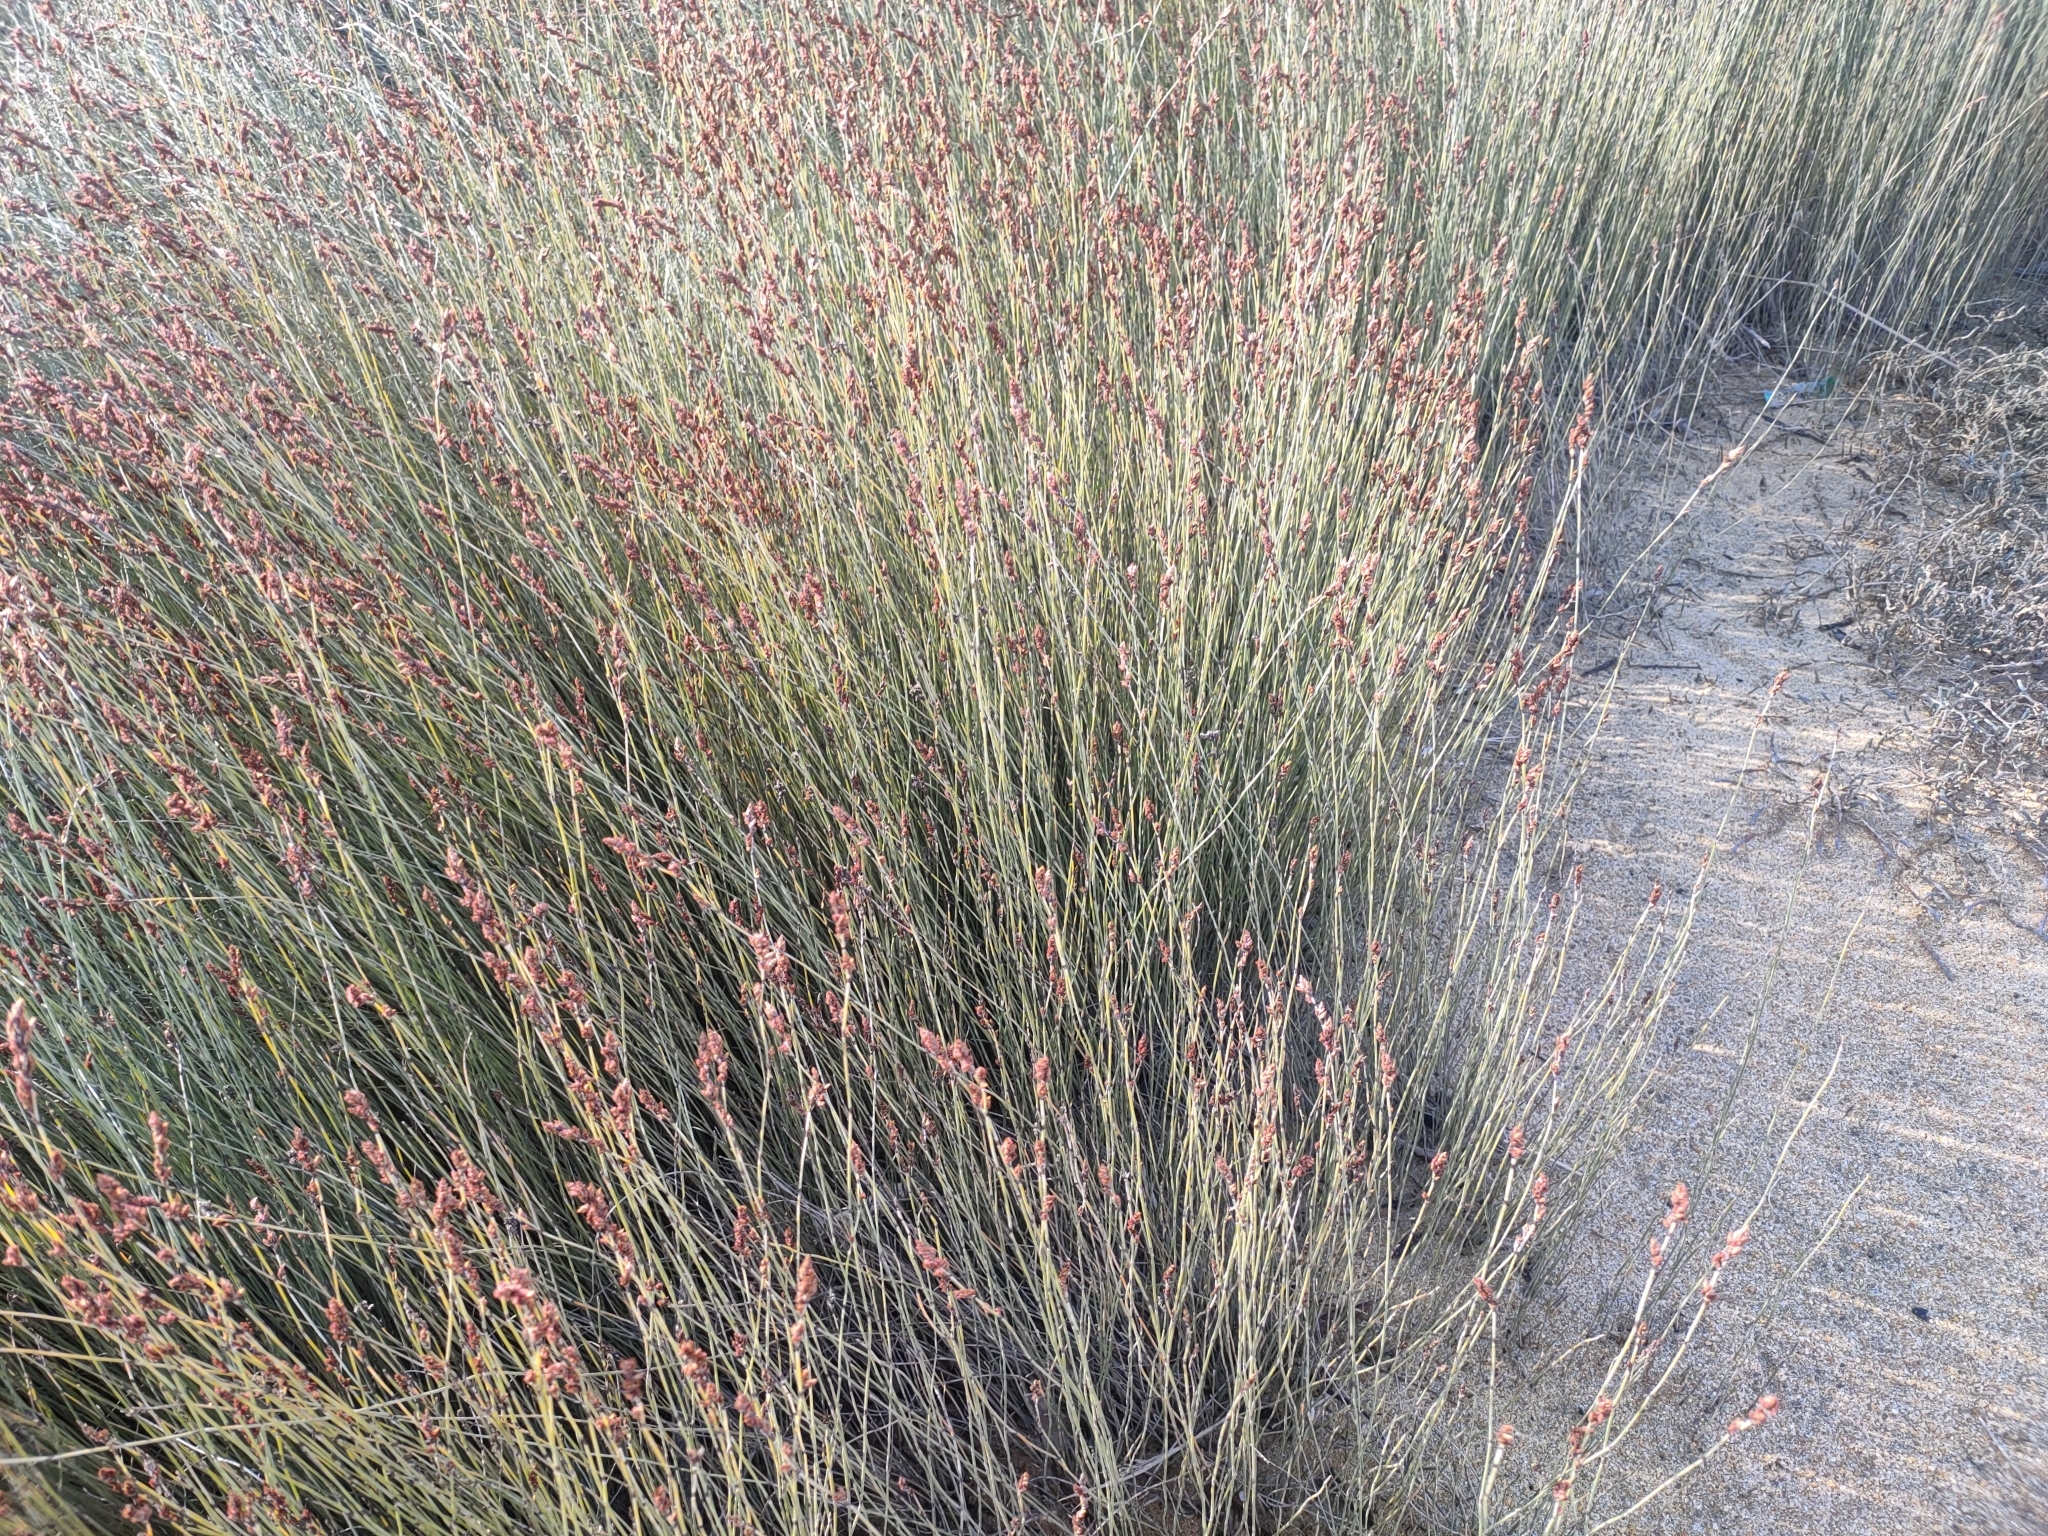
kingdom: Plantae
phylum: Tracheophyta
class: Liliopsida
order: Poales
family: Restionaceae
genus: Apodasmia
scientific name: Apodasmia similis
